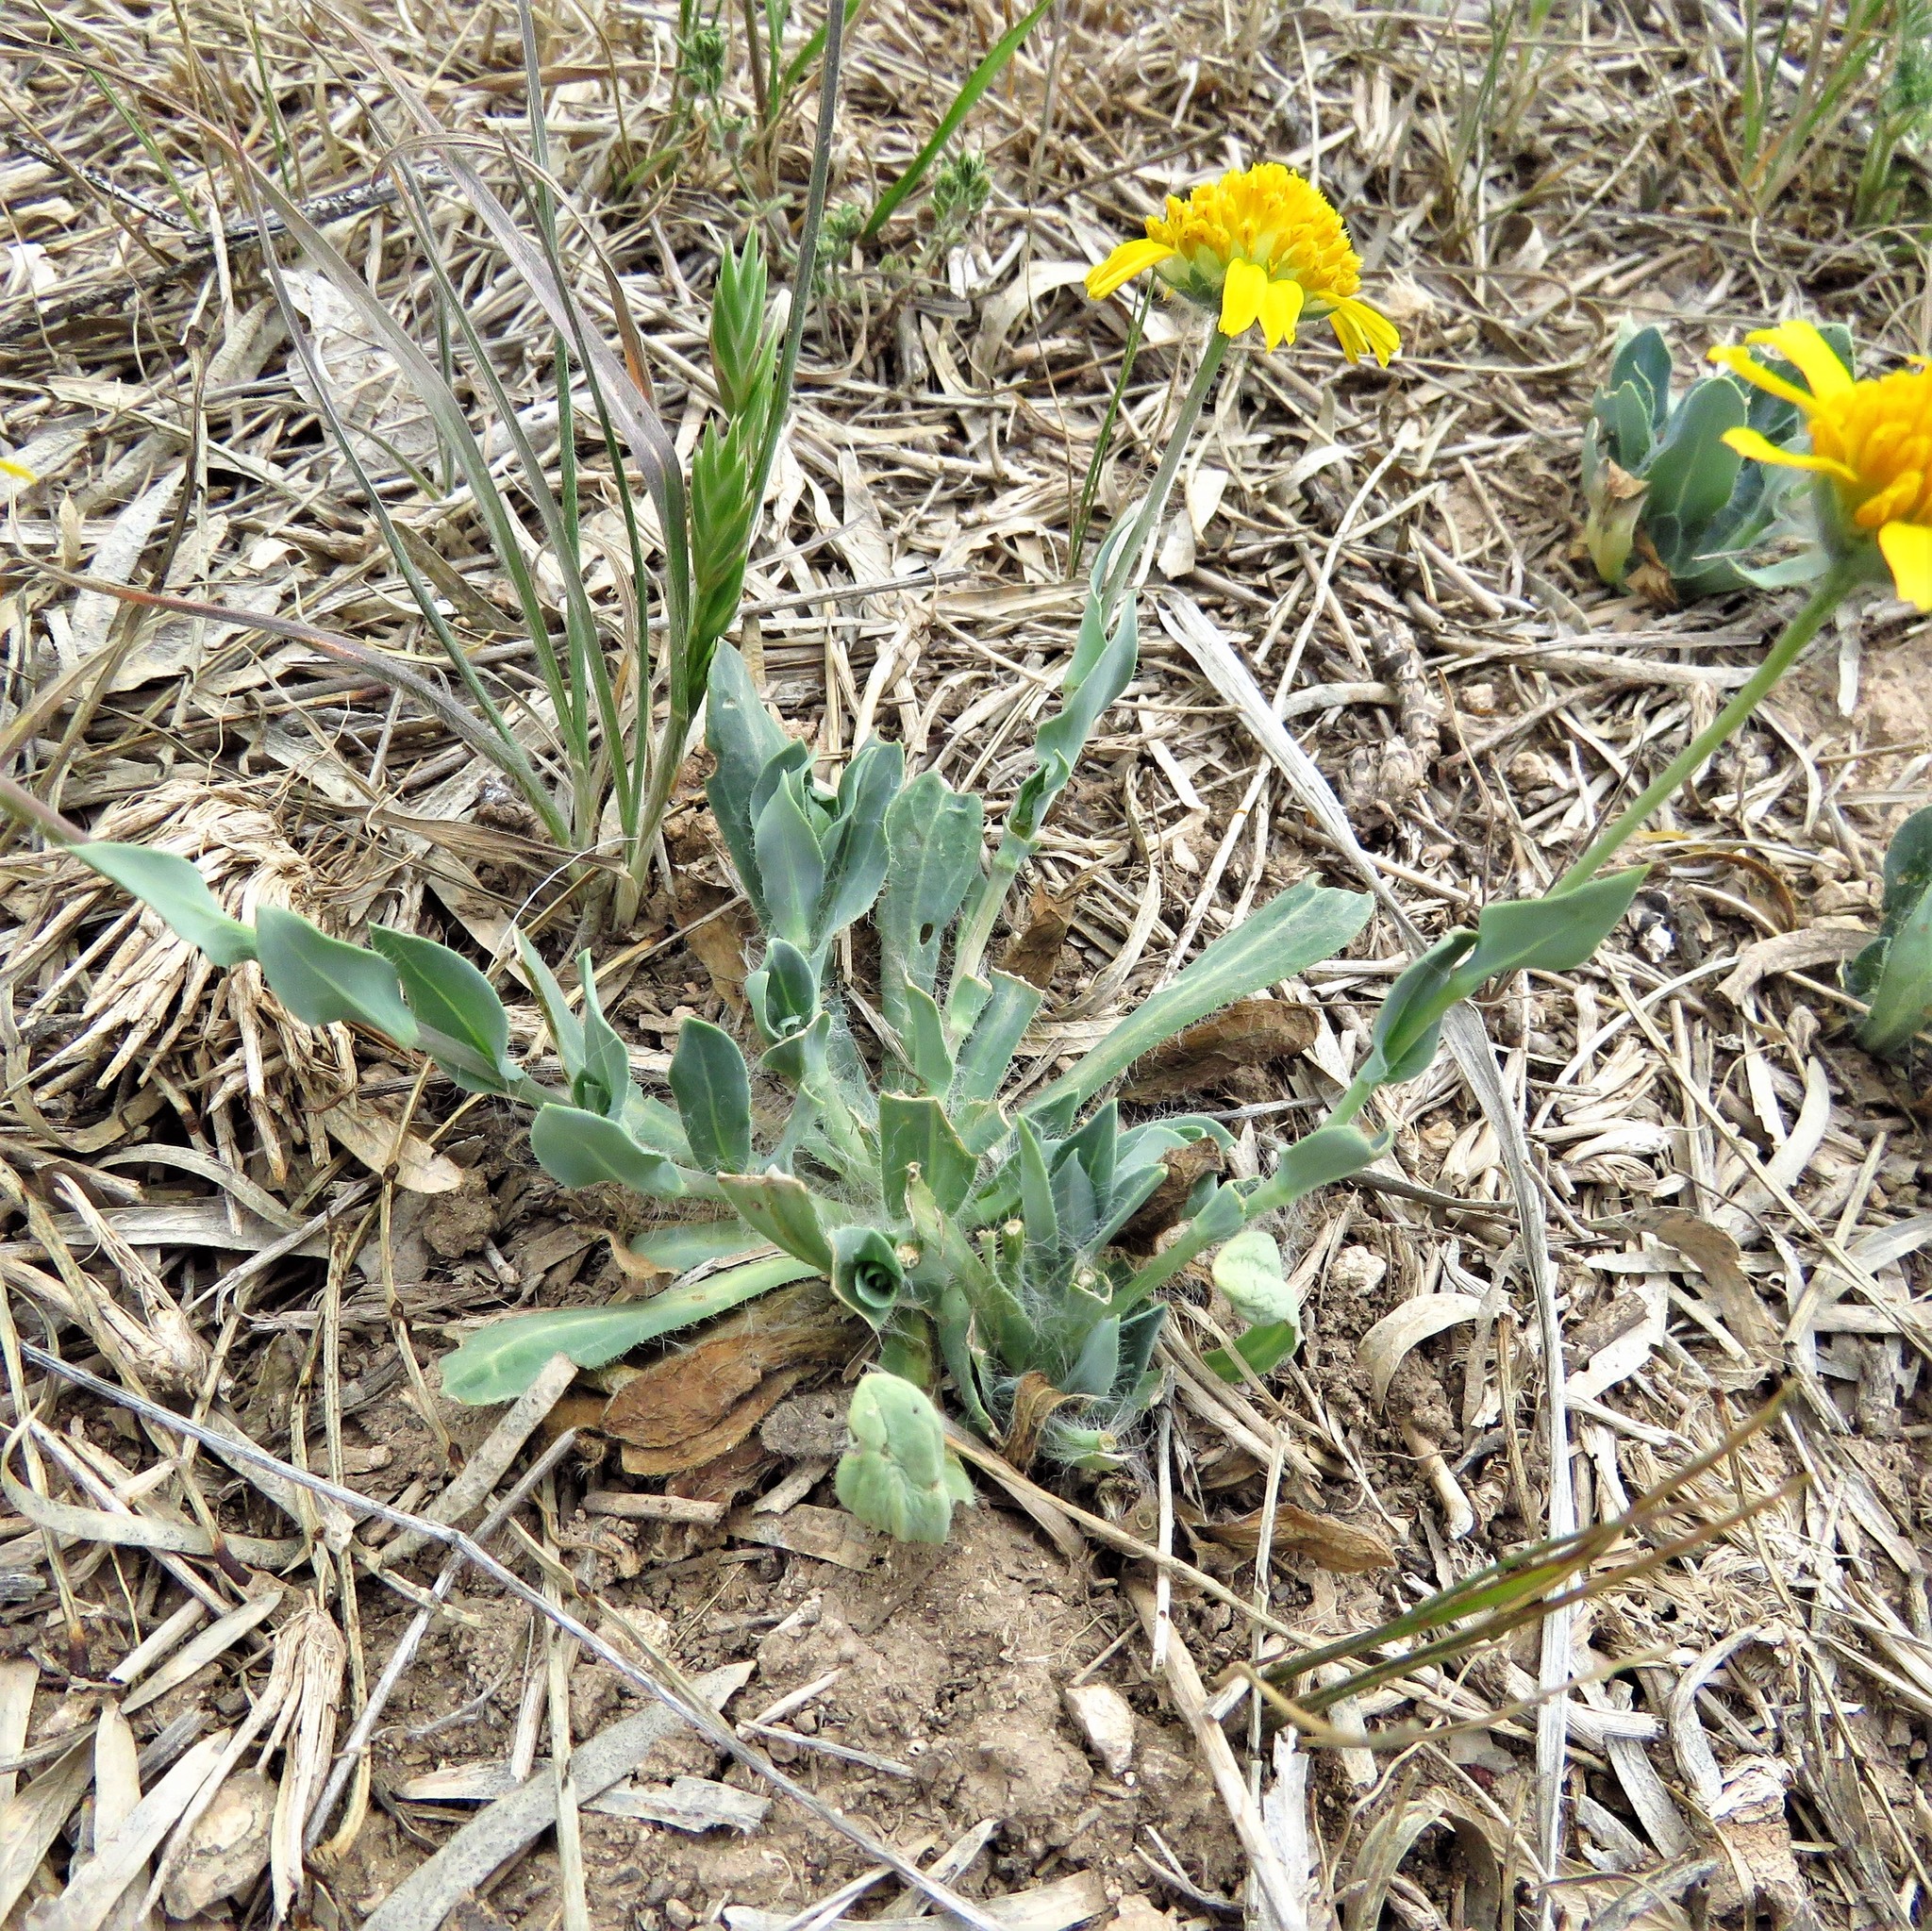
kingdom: Plantae
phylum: Tracheophyta
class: Magnoliopsida
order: Asterales
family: Asteraceae
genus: Amblyolepis
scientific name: Amblyolepis setigera
